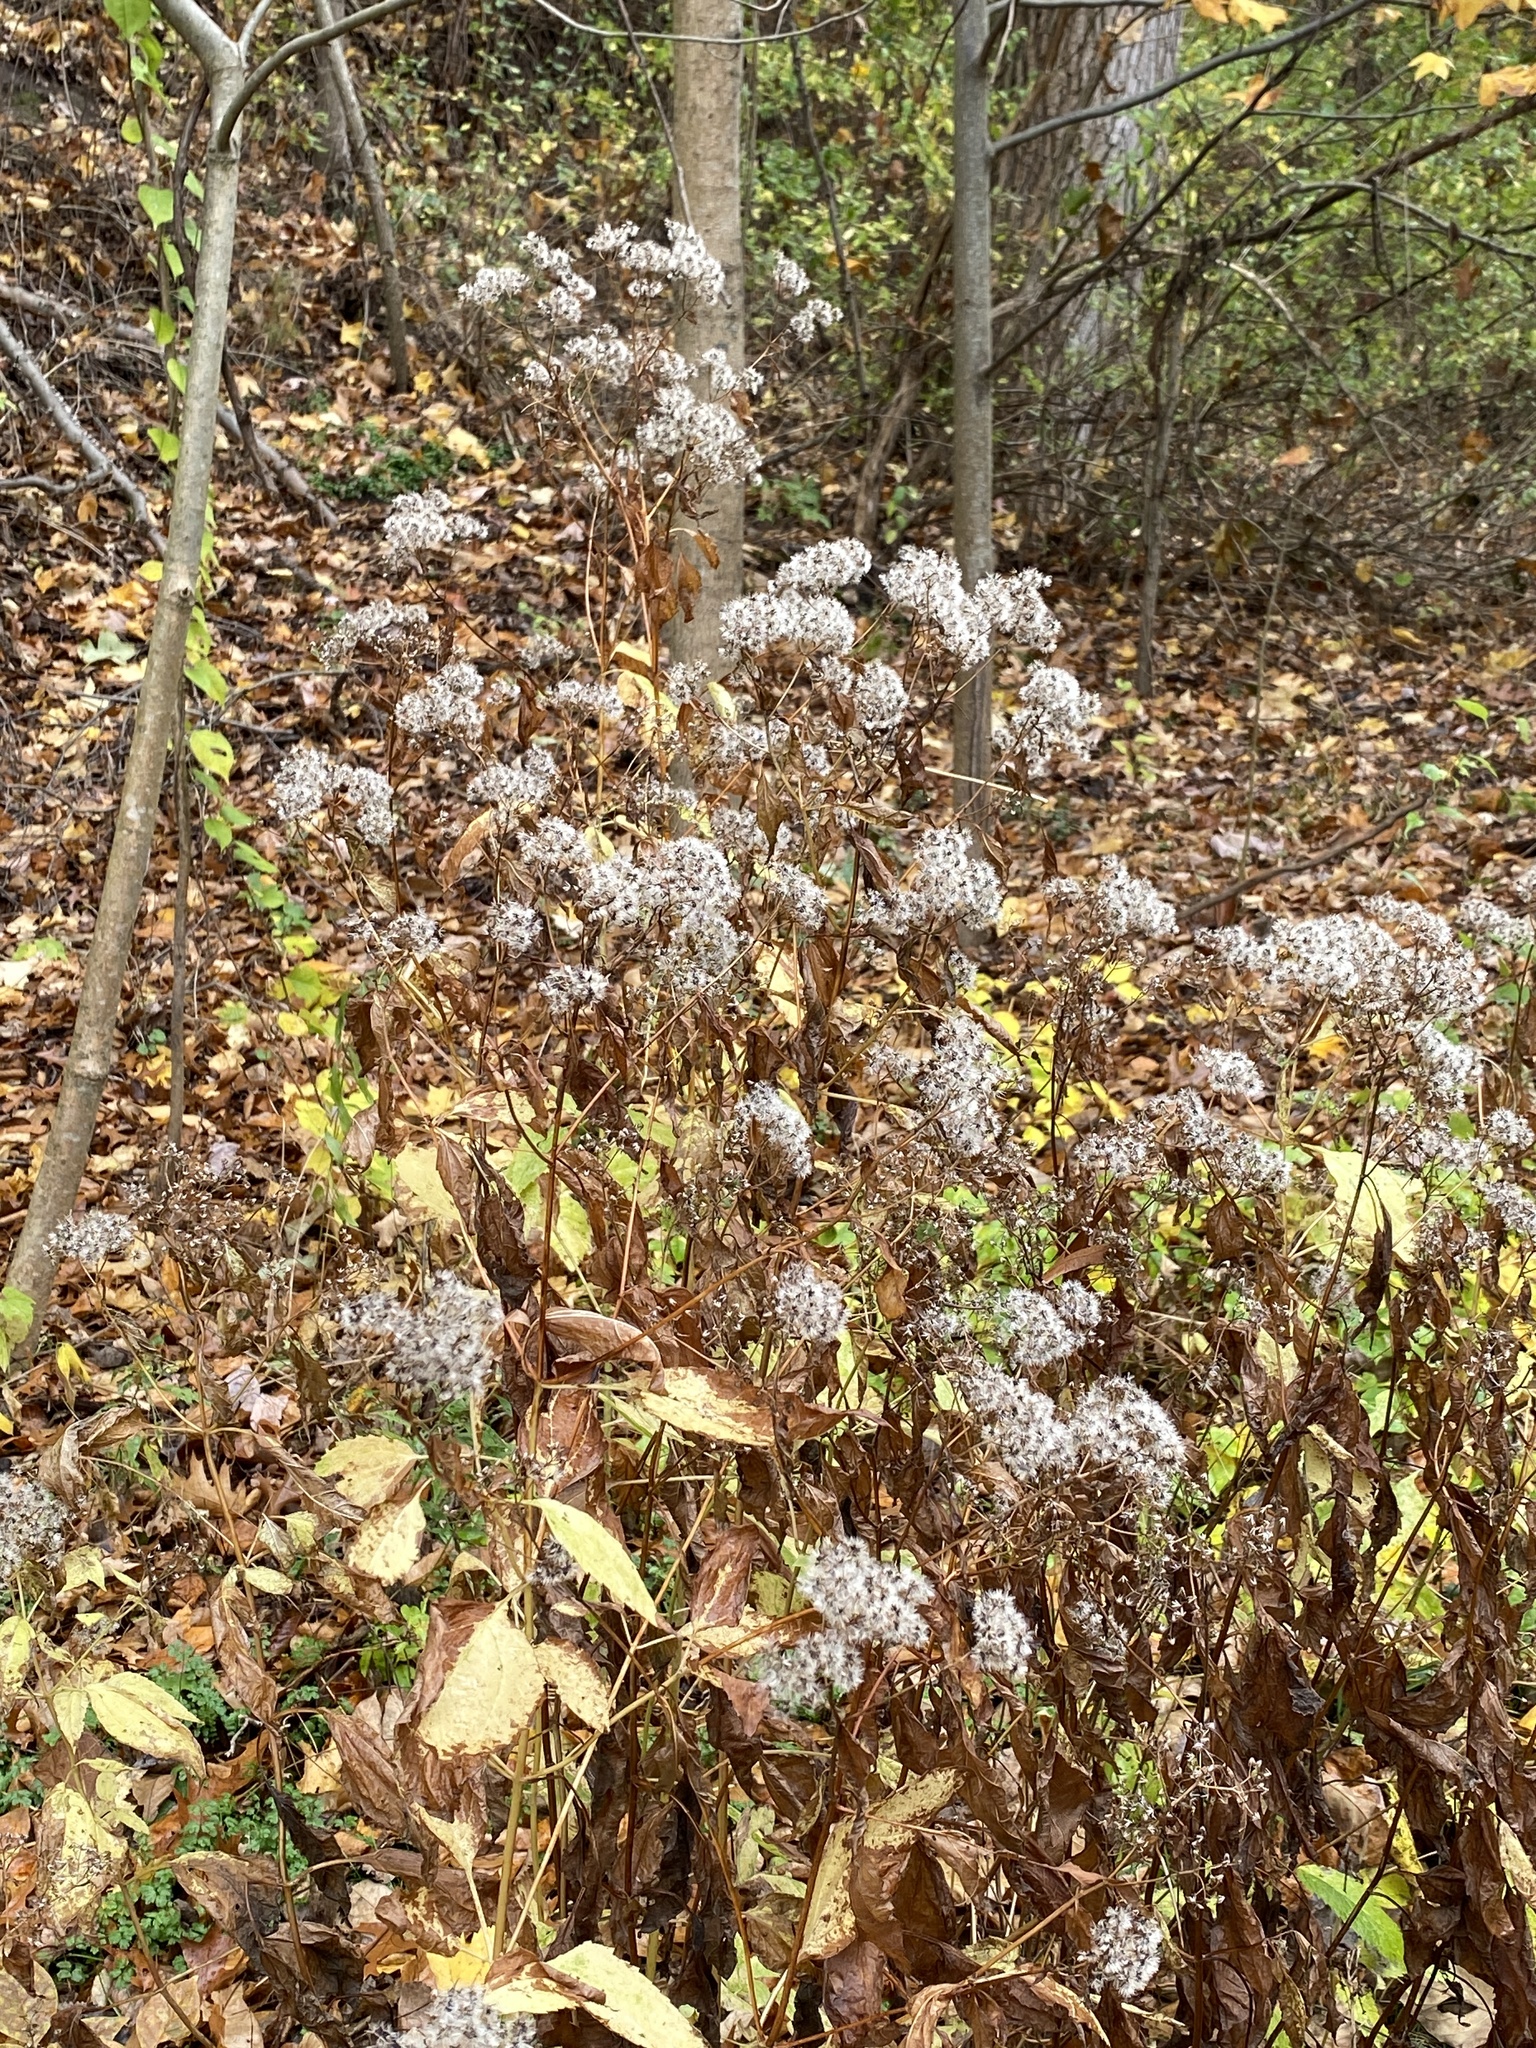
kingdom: Plantae
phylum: Tracheophyta
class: Magnoliopsida
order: Asterales
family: Asteraceae
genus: Ageratina
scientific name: Ageratina altissima
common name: White snakeroot
